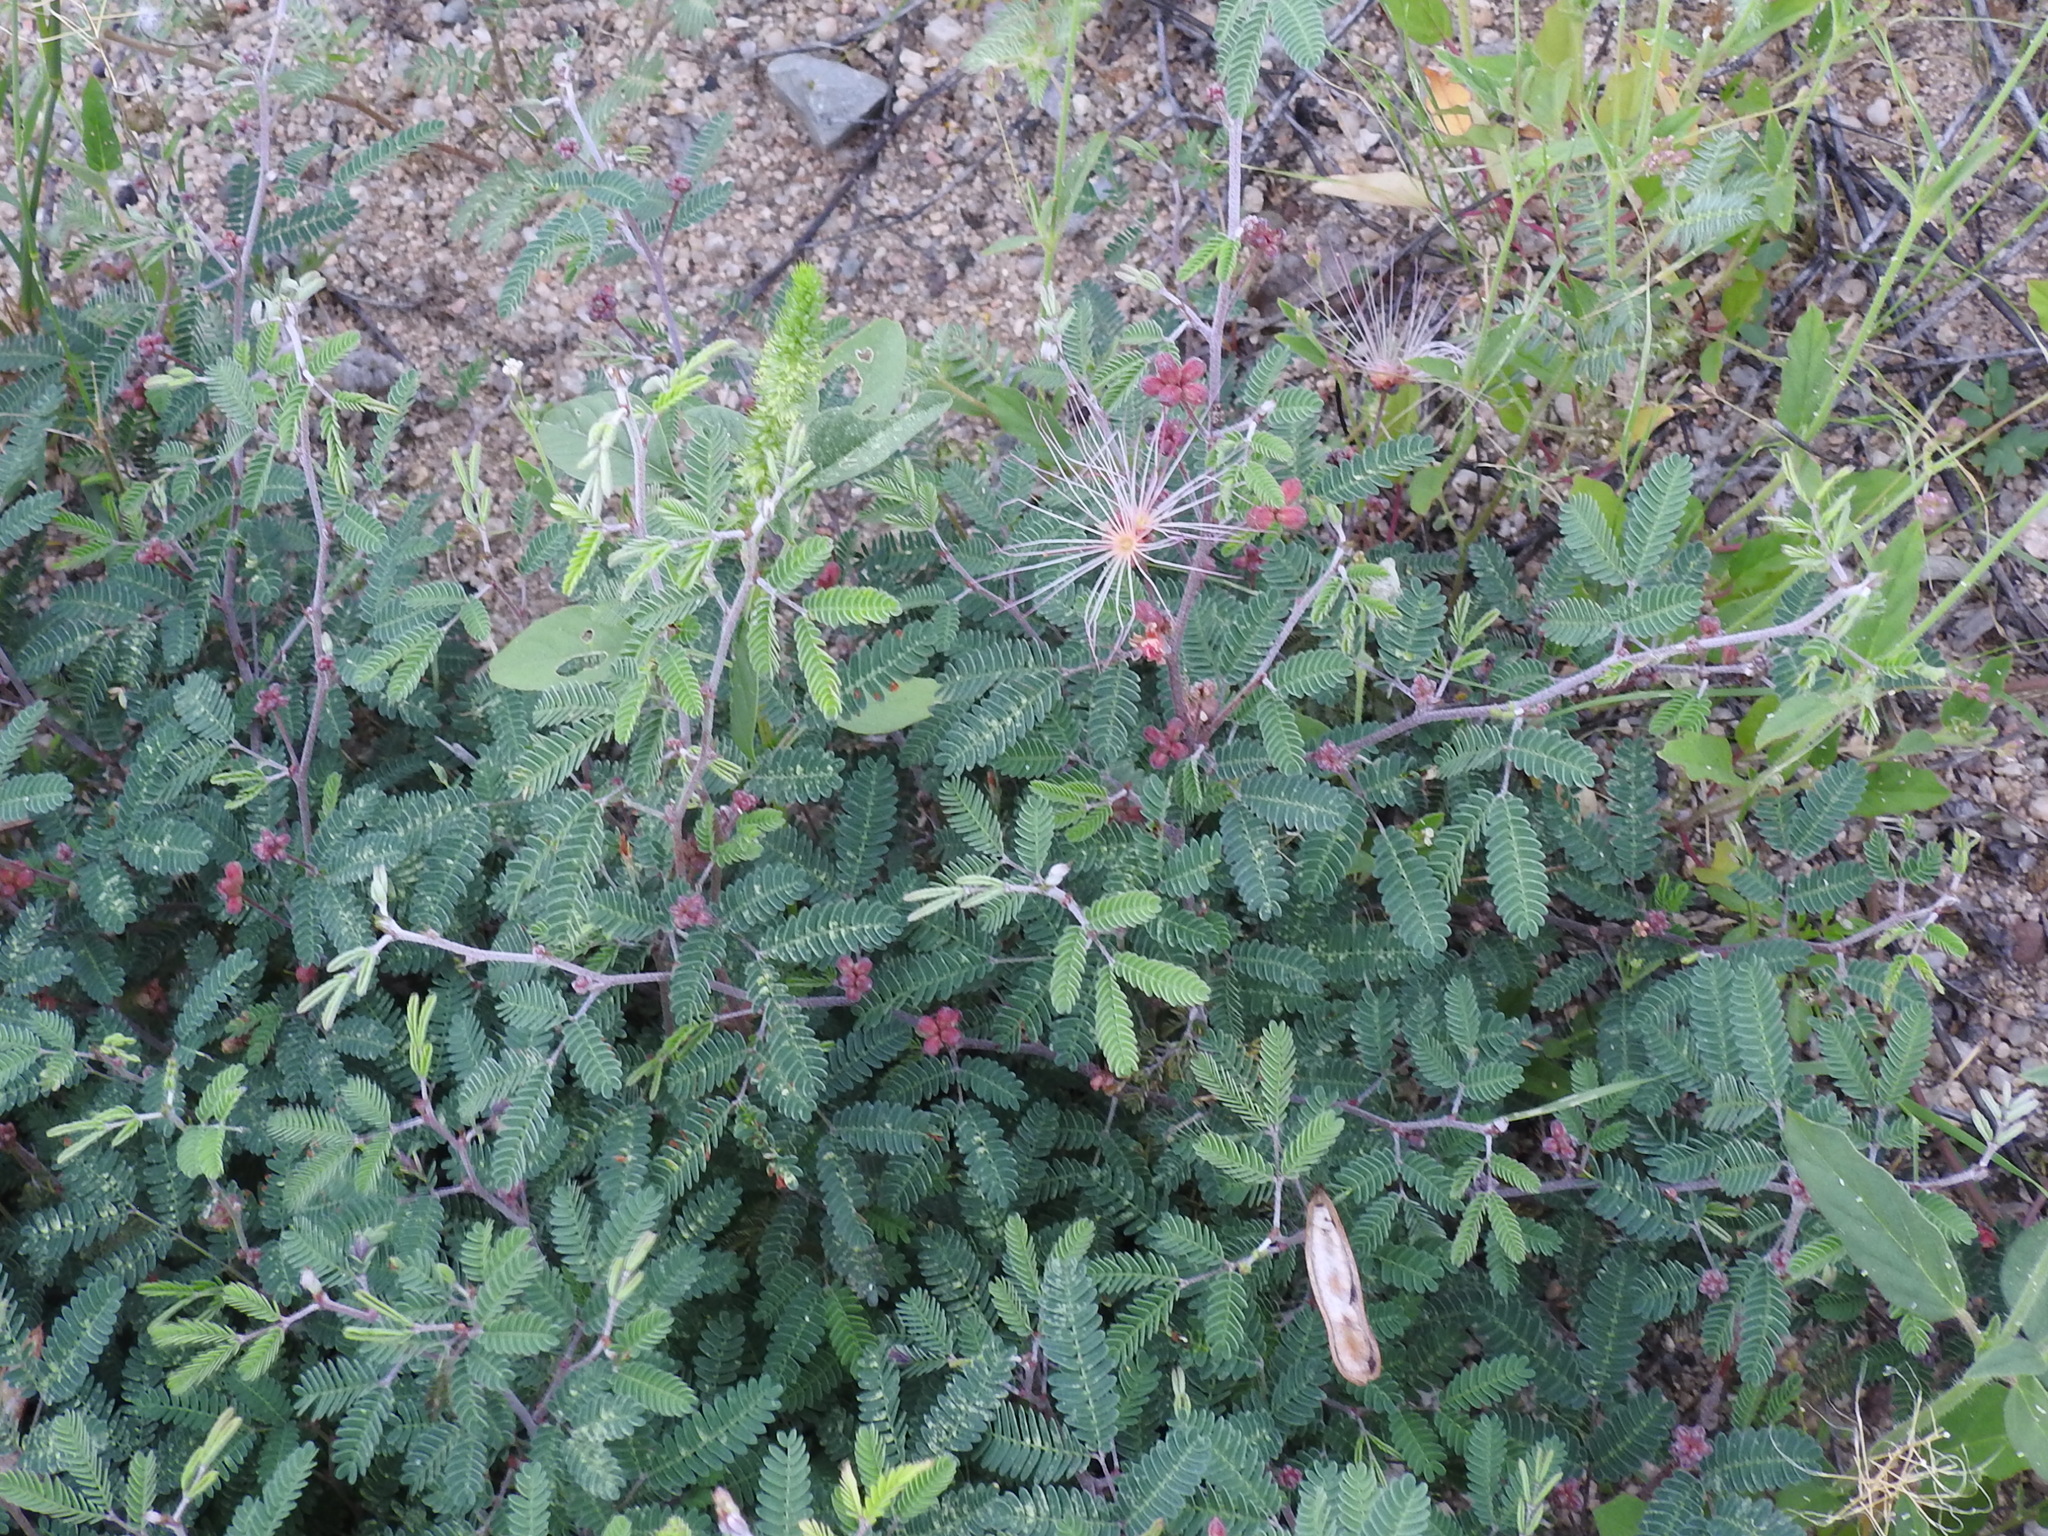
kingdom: Plantae
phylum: Tracheophyta
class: Magnoliopsida
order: Fabales
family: Fabaceae
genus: Calliandra
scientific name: Calliandra eriophylla
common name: Fairy-duster
